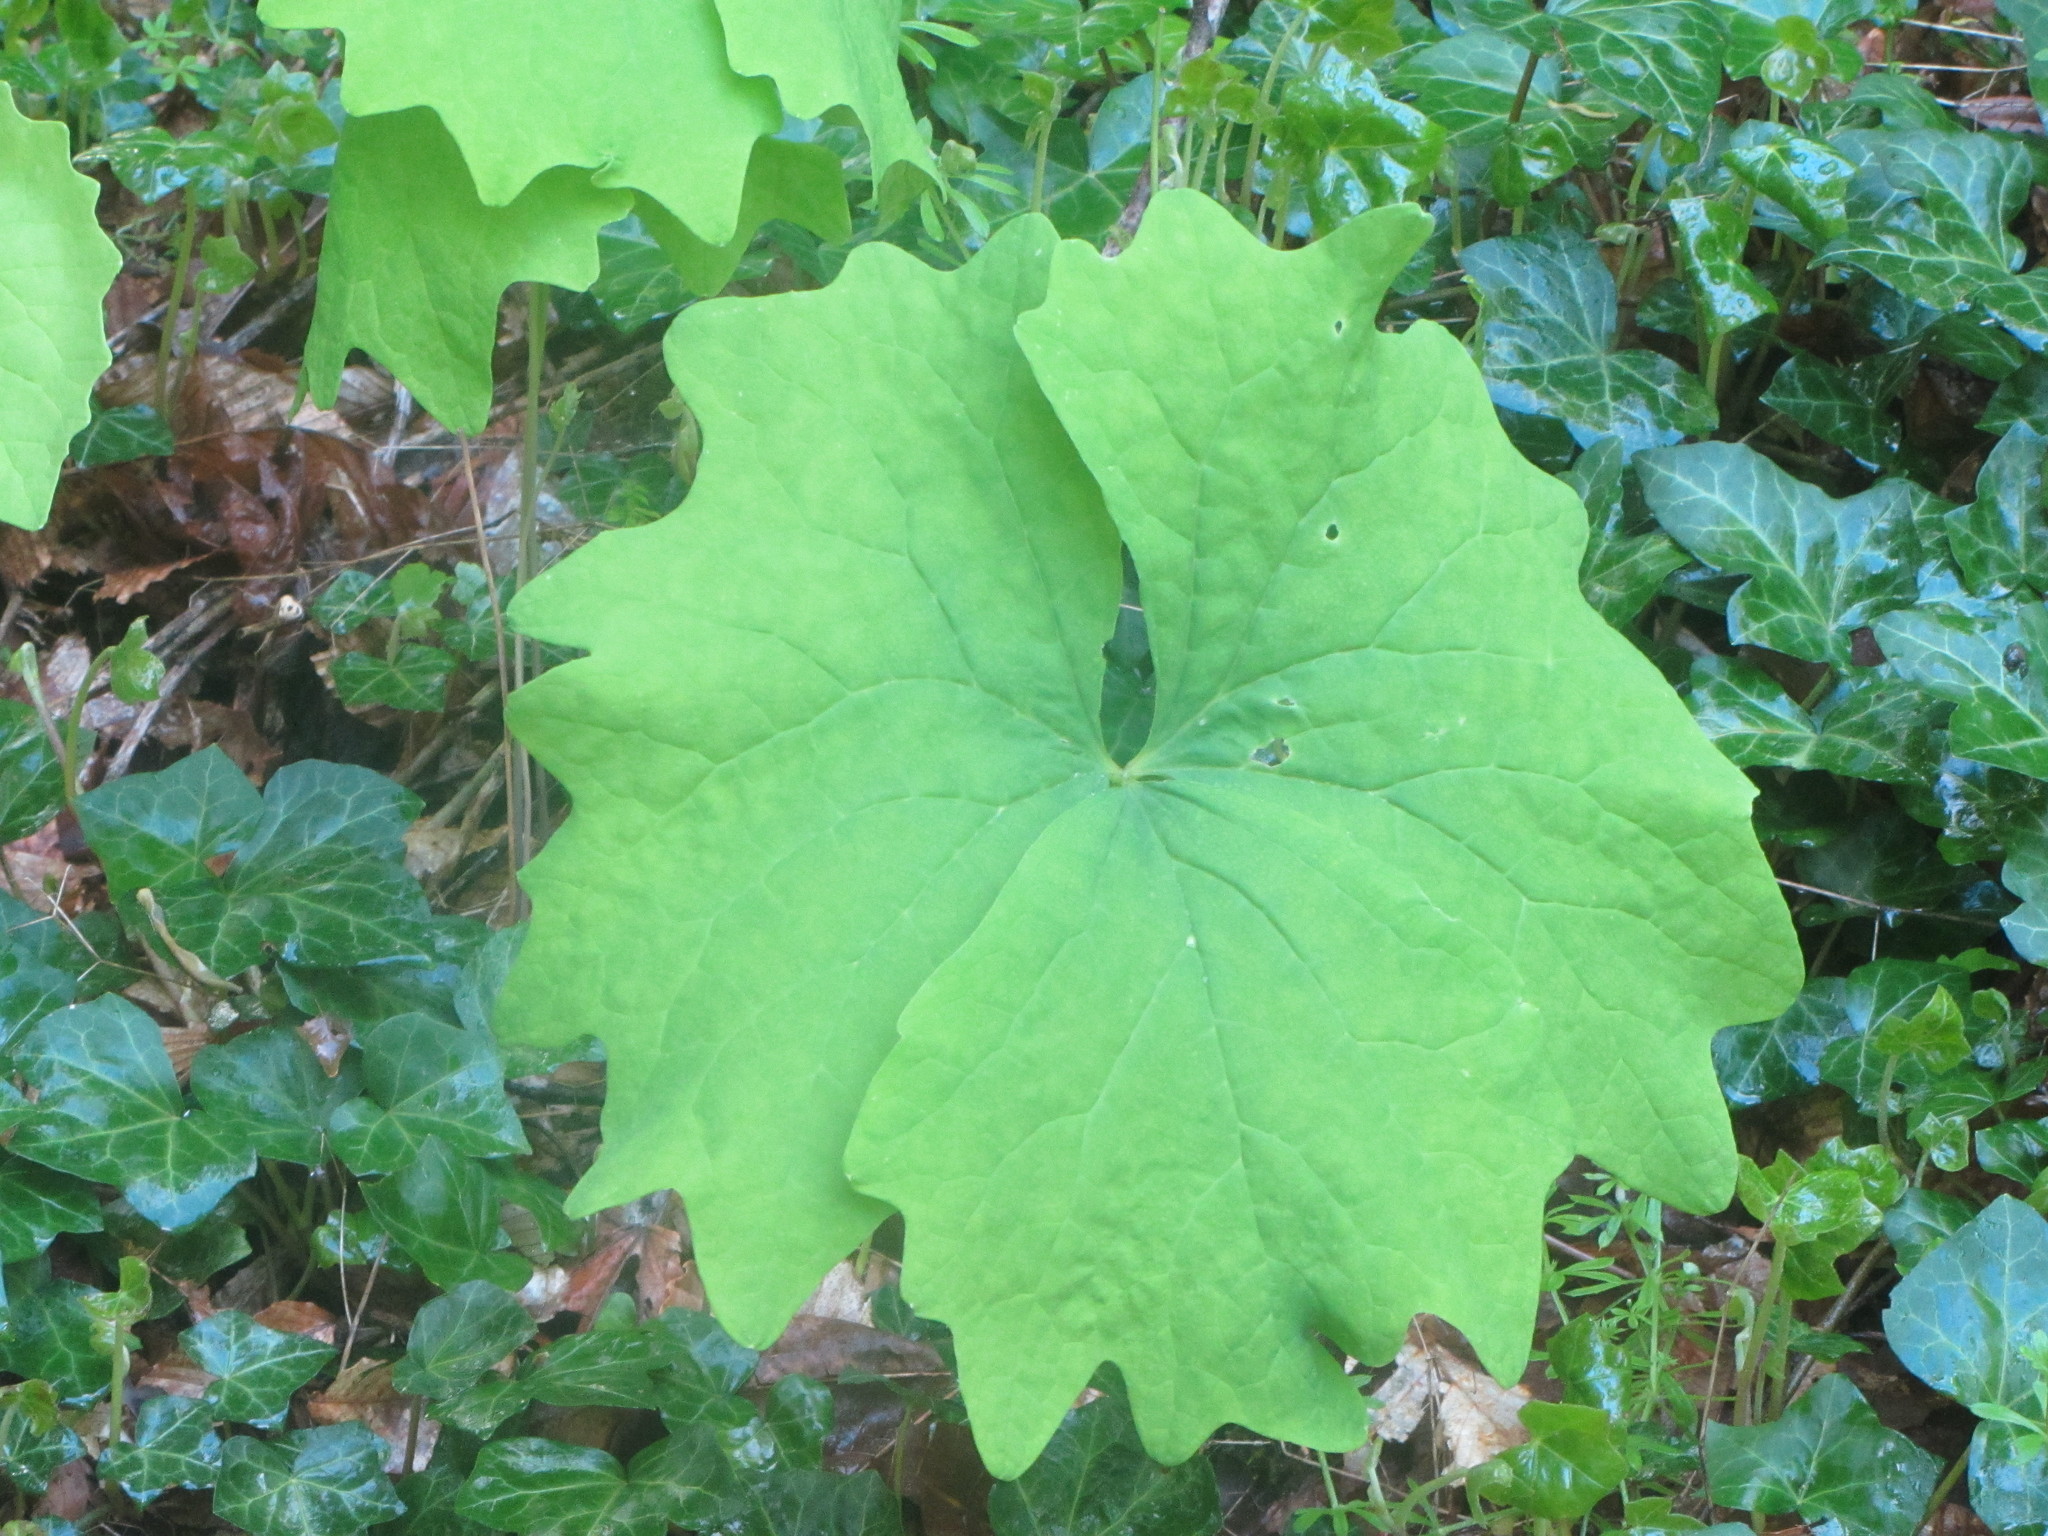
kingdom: Plantae
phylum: Tracheophyta
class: Magnoliopsida
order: Ranunculales
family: Berberidaceae
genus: Achlys
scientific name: Achlys triphylla
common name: Vanilla-leaf
